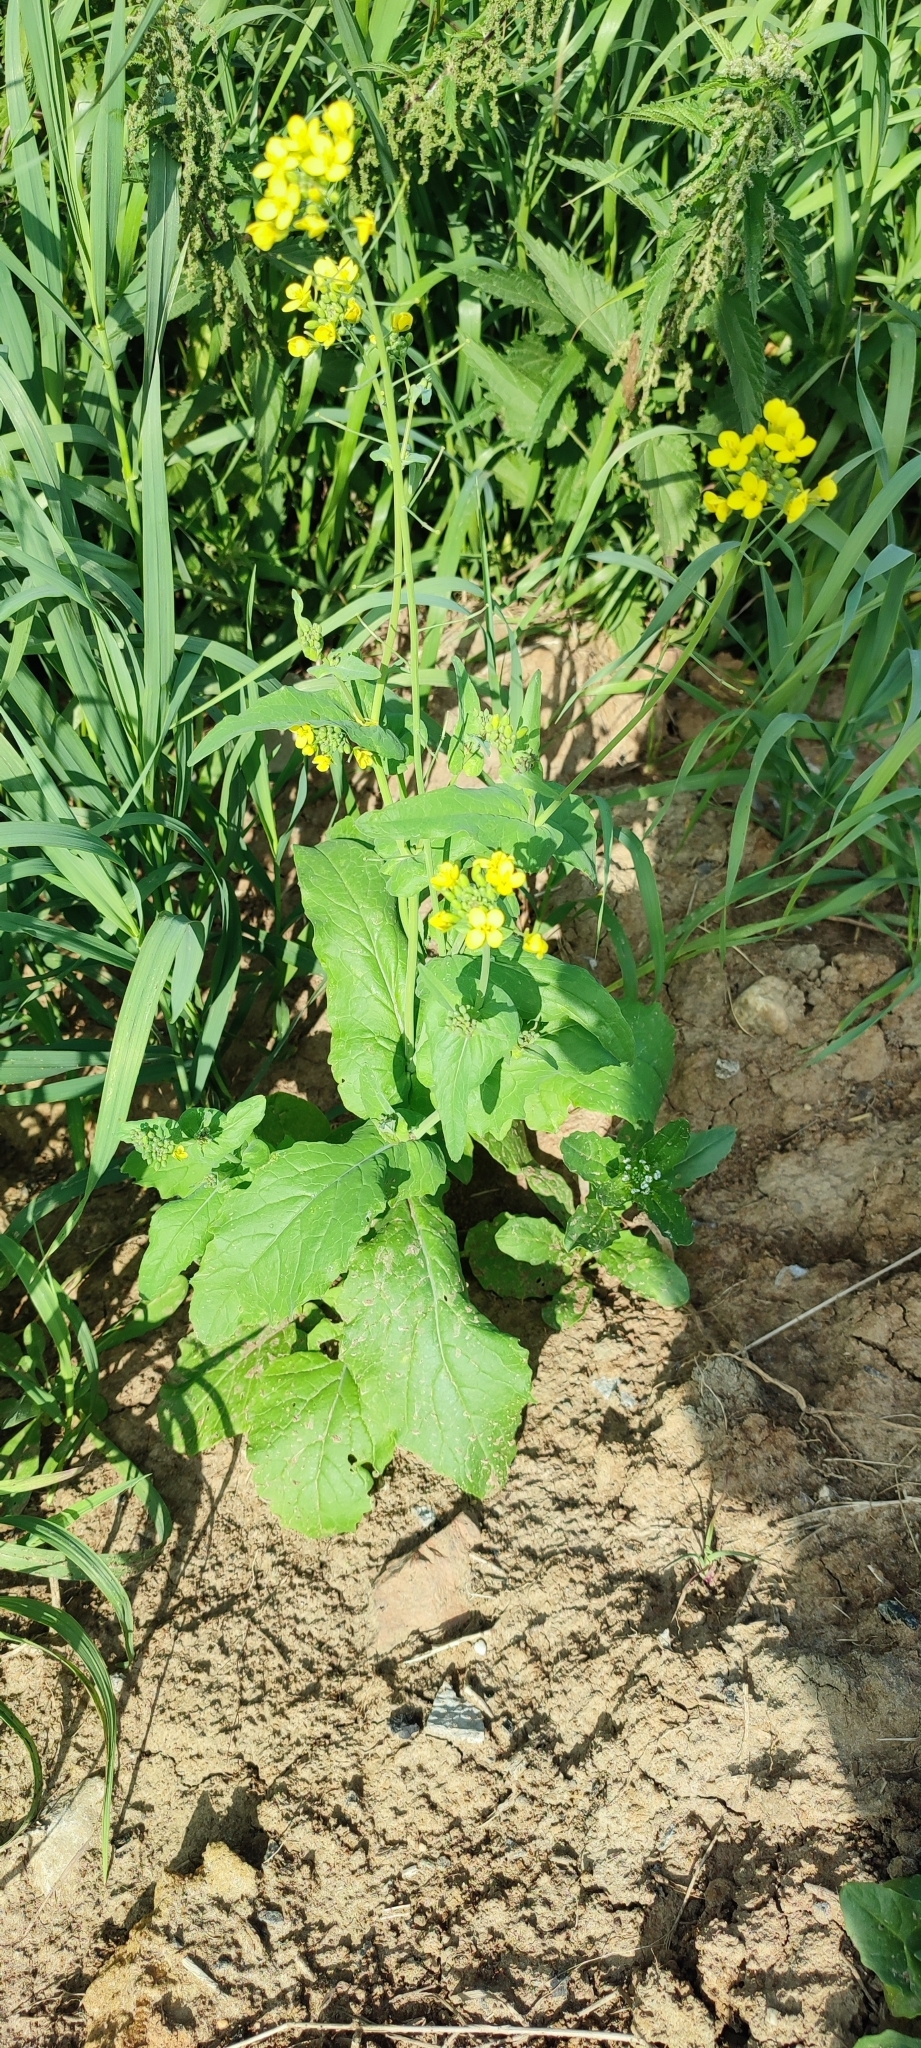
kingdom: Plantae
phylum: Tracheophyta
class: Magnoliopsida
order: Brassicales
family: Brassicaceae
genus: Brassica
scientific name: Brassica rapa
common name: Field mustard
